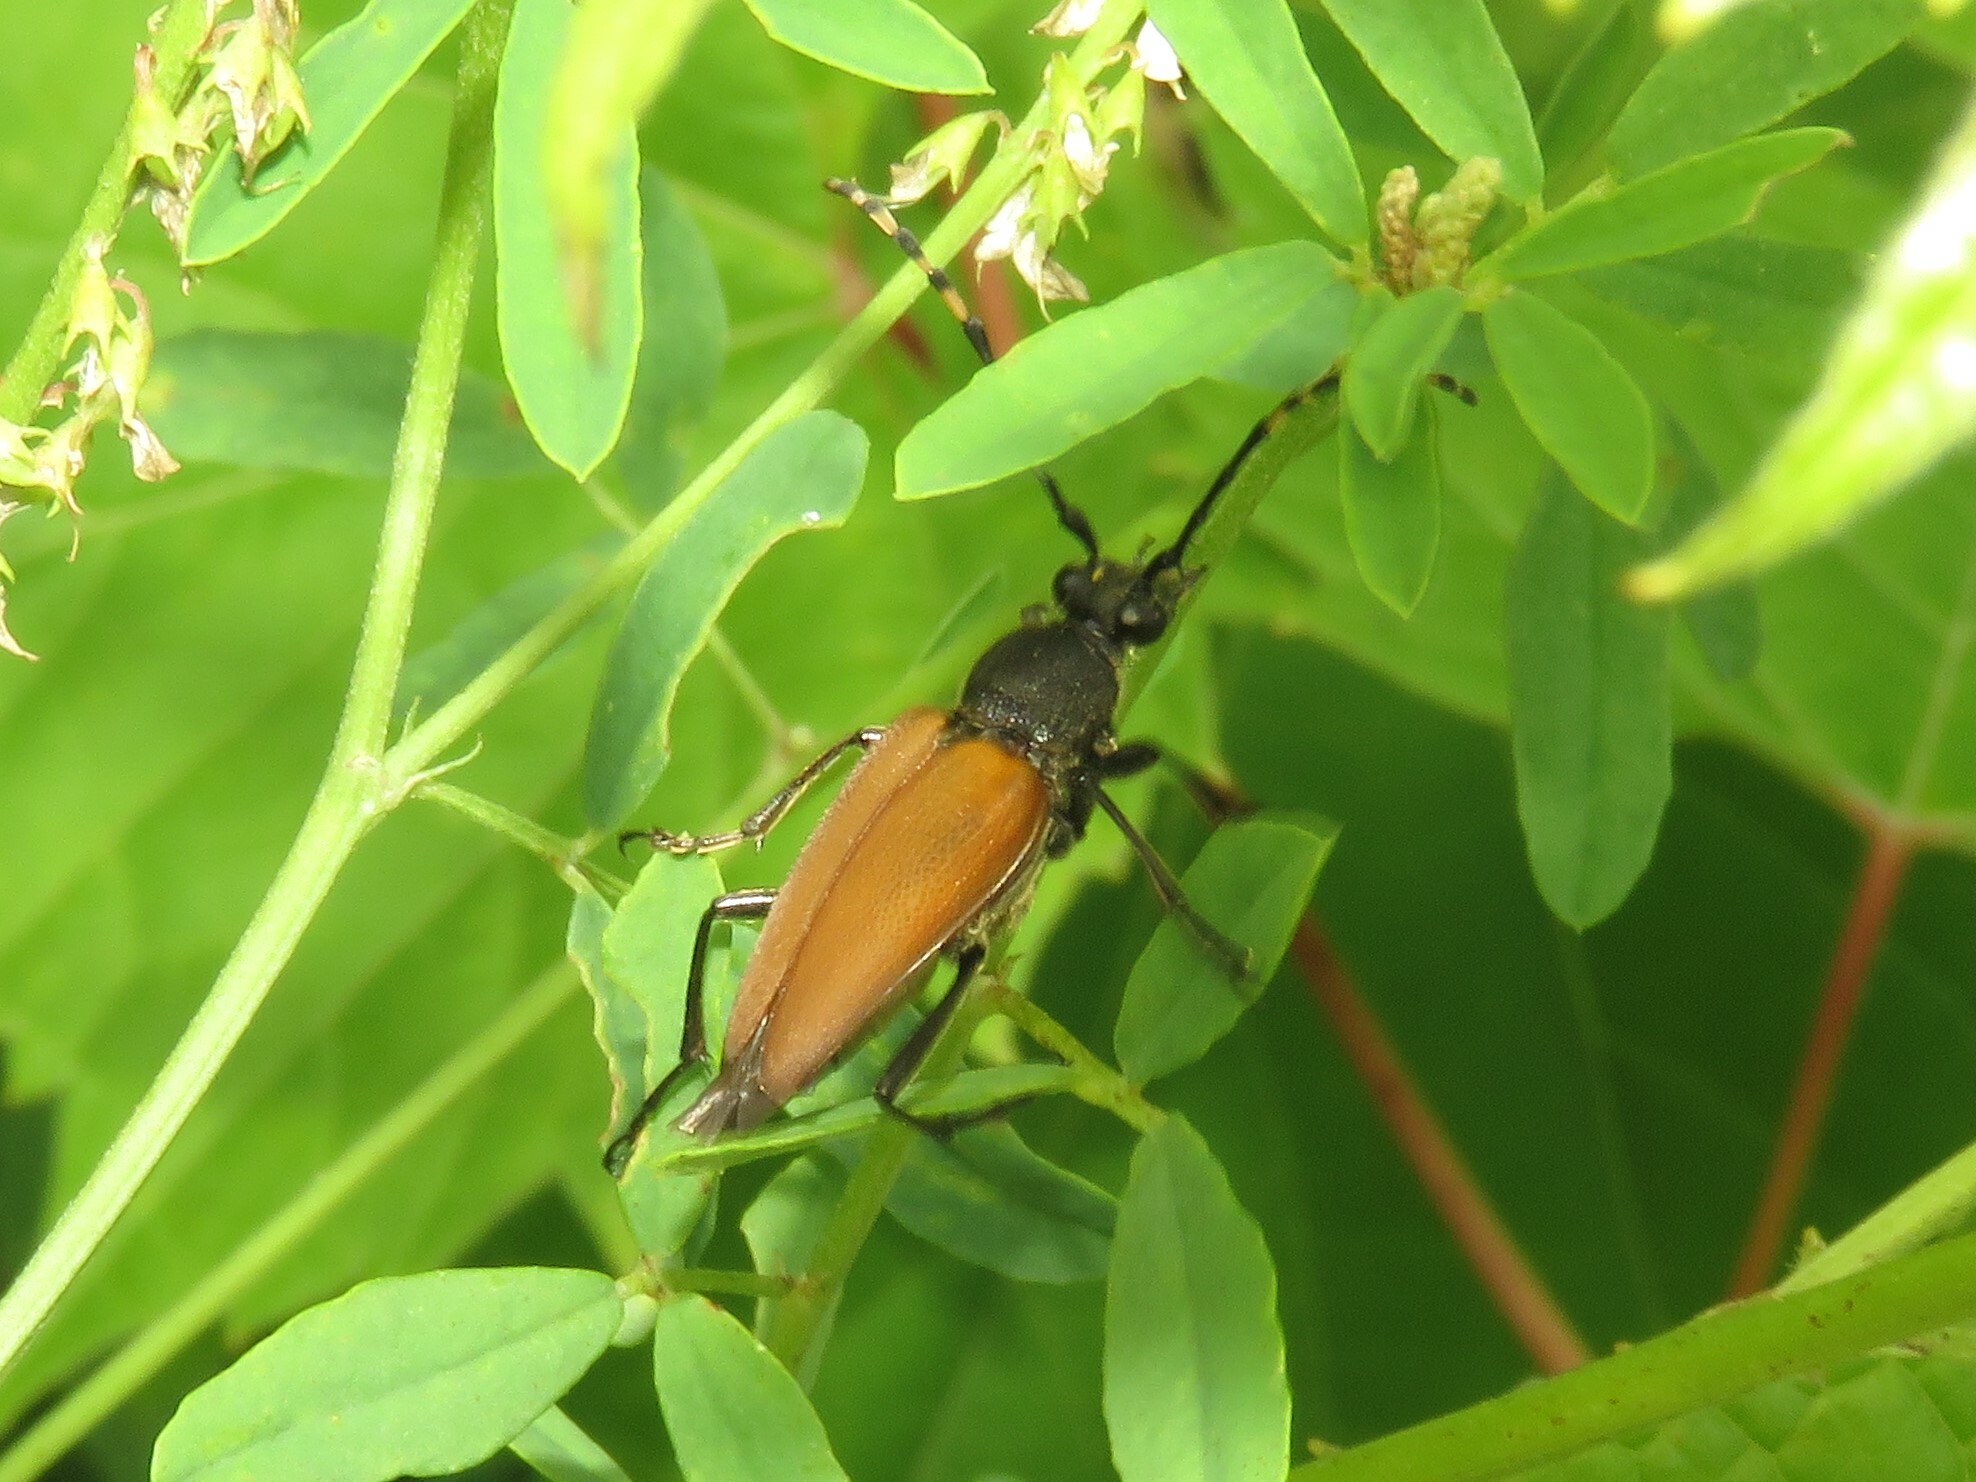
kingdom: Animalia
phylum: Arthropoda
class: Insecta
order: Coleoptera
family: Cerambycidae
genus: Brachyleptura
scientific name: Brachyleptura rubrica
